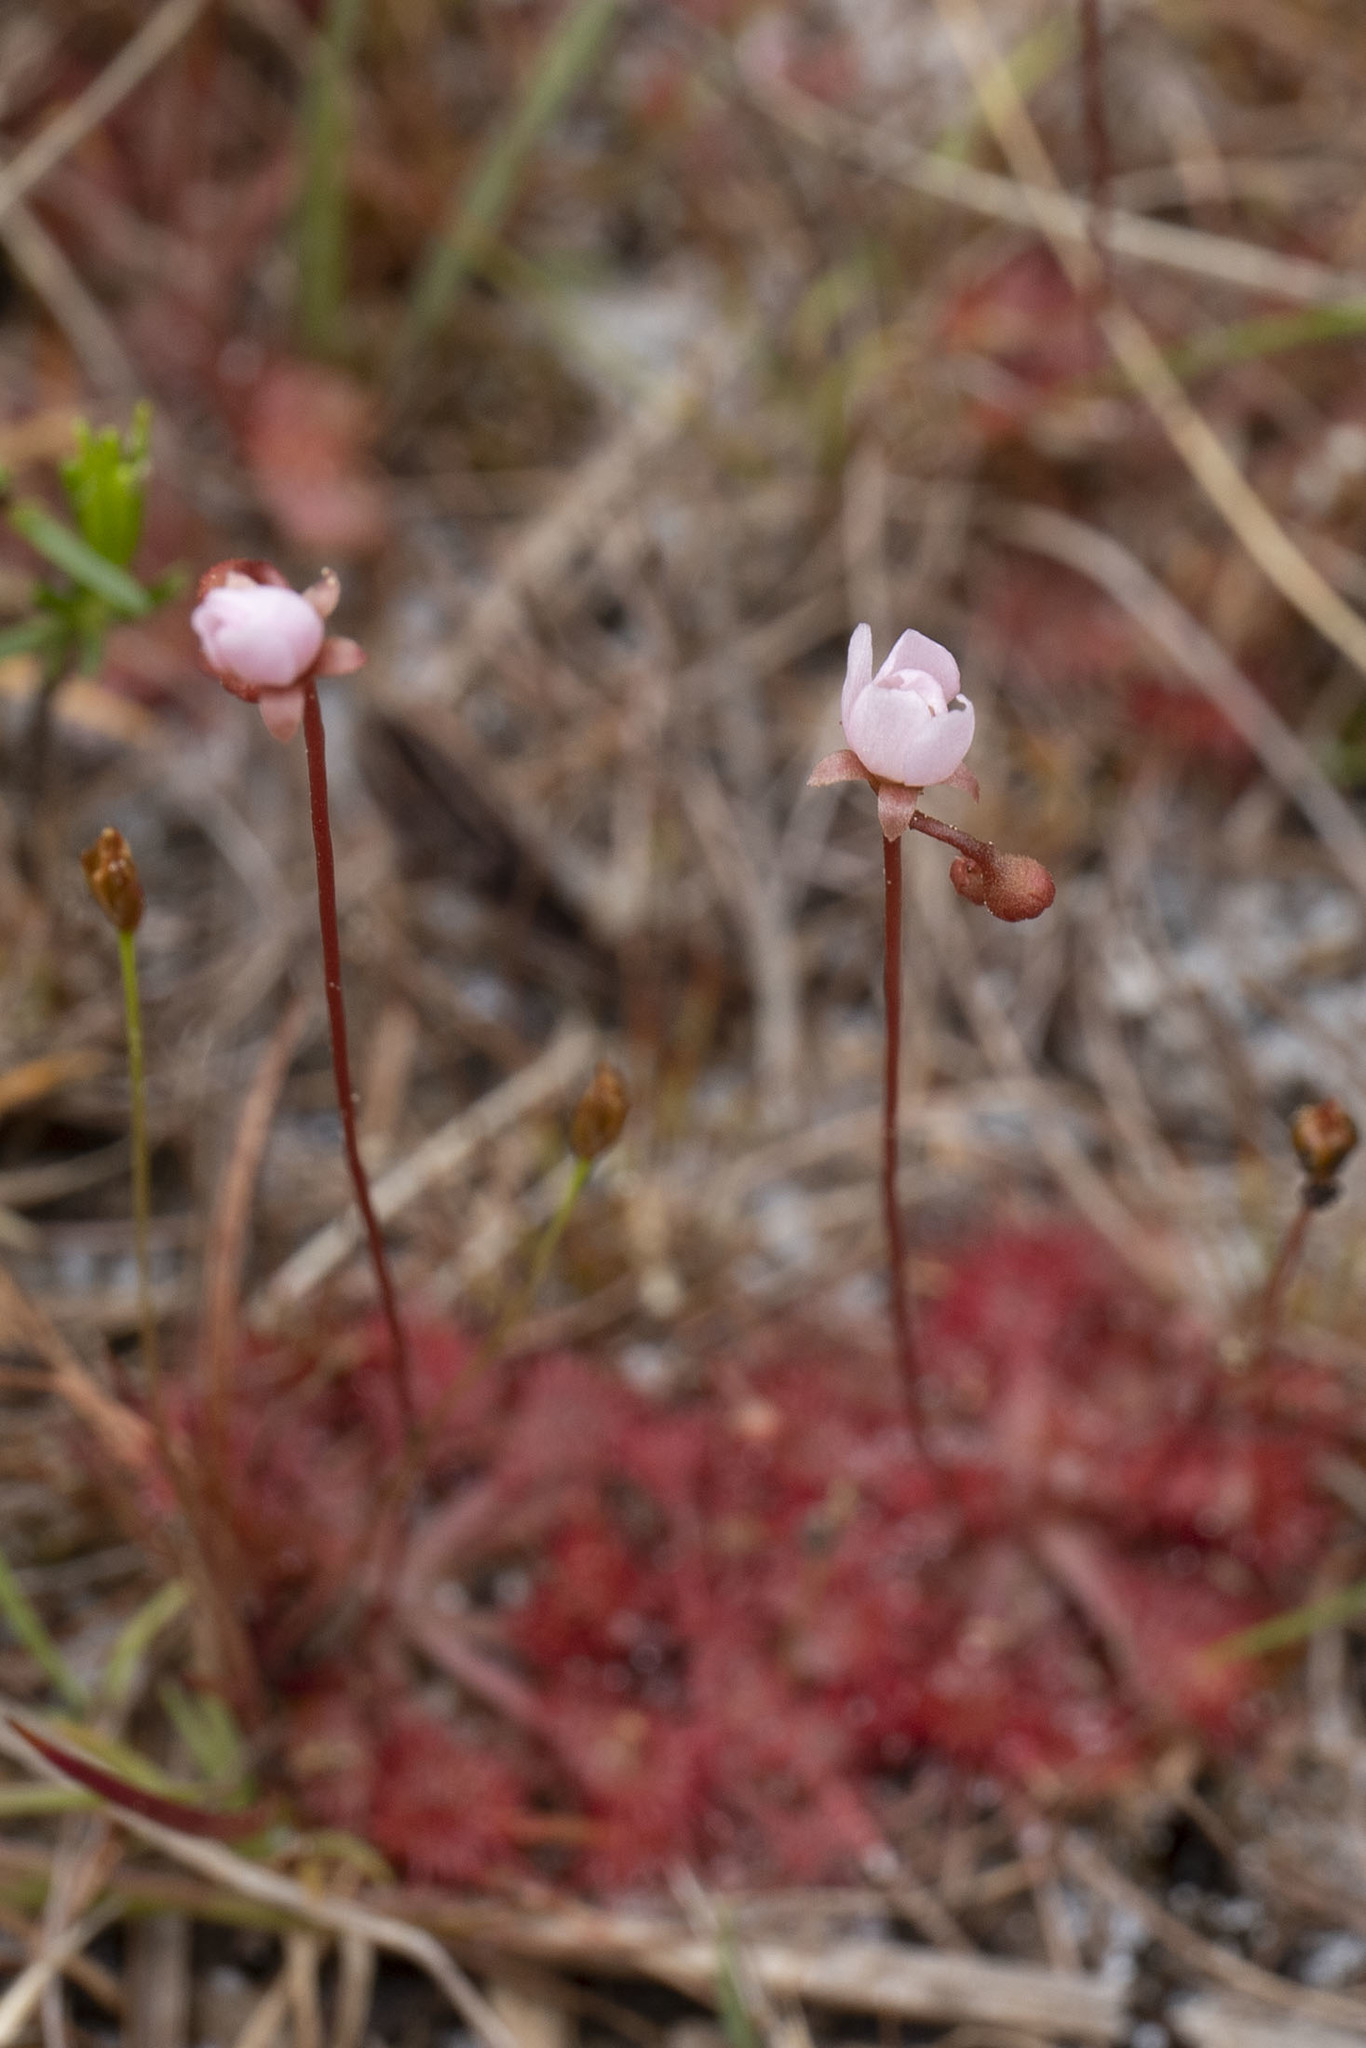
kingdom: Plantae
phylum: Tracheophyta
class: Magnoliopsida
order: Caryophyllales
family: Droseraceae
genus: Drosera
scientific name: Drosera capillaris
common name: Pink sundew
